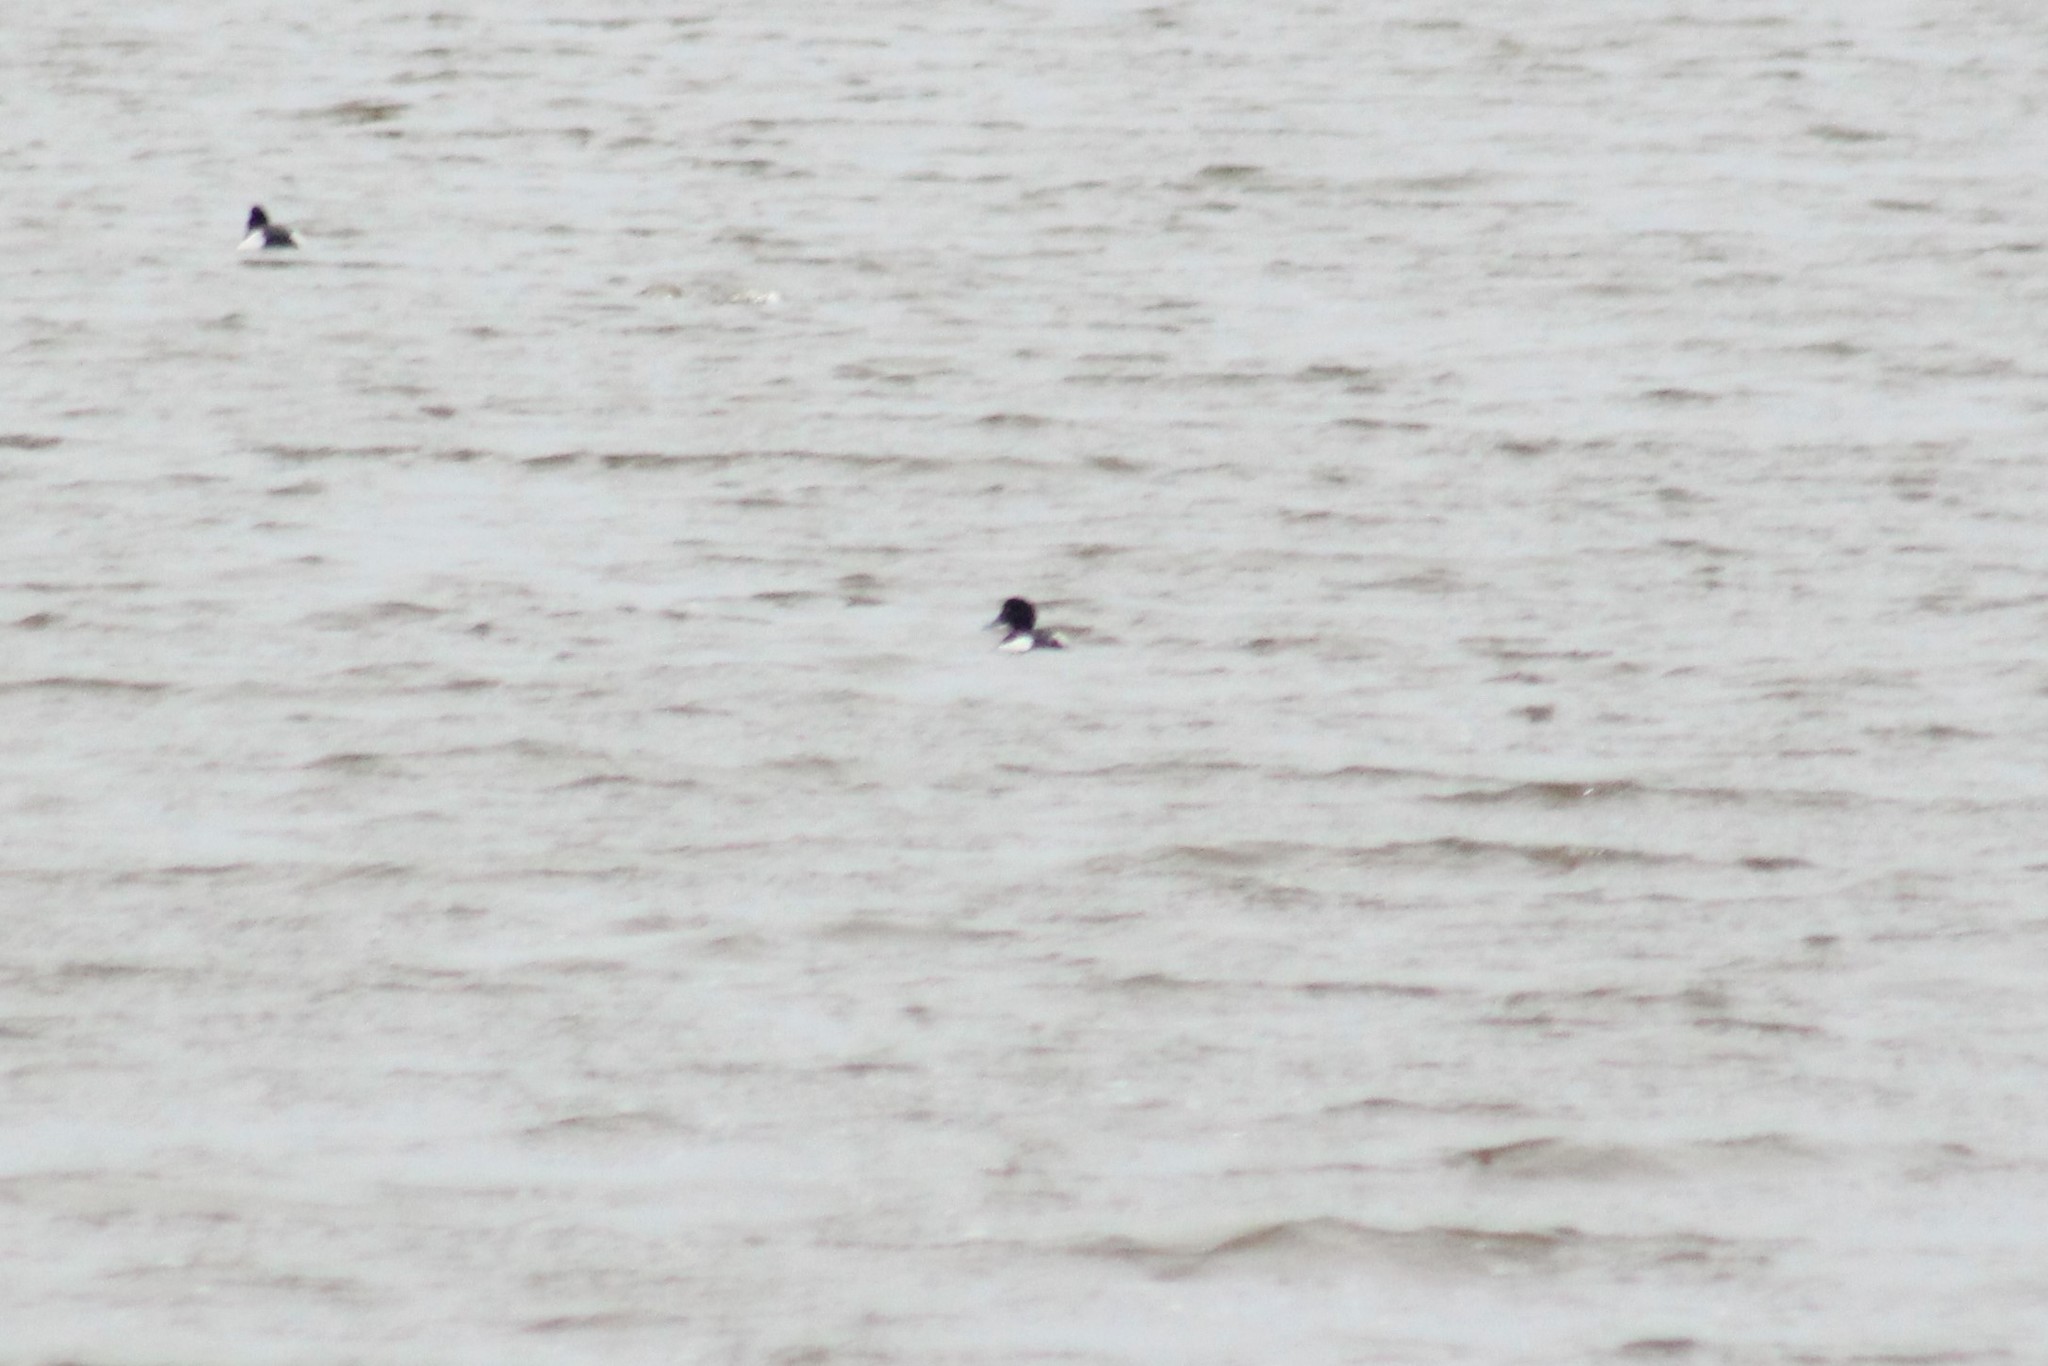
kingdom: Animalia
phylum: Chordata
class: Aves
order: Anseriformes
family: Anatidae
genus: Aythya
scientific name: Aythya fuligula
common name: Tufted duck
